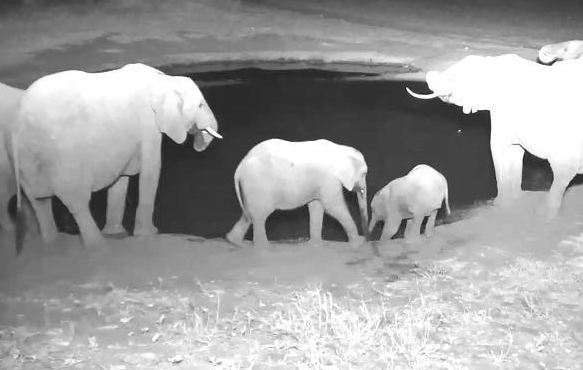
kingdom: Animalia
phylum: Chordata
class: Mammalia
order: Proboscidea
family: Elephantidae
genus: Loxodonta
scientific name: Loxodonta africana
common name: African elephant
